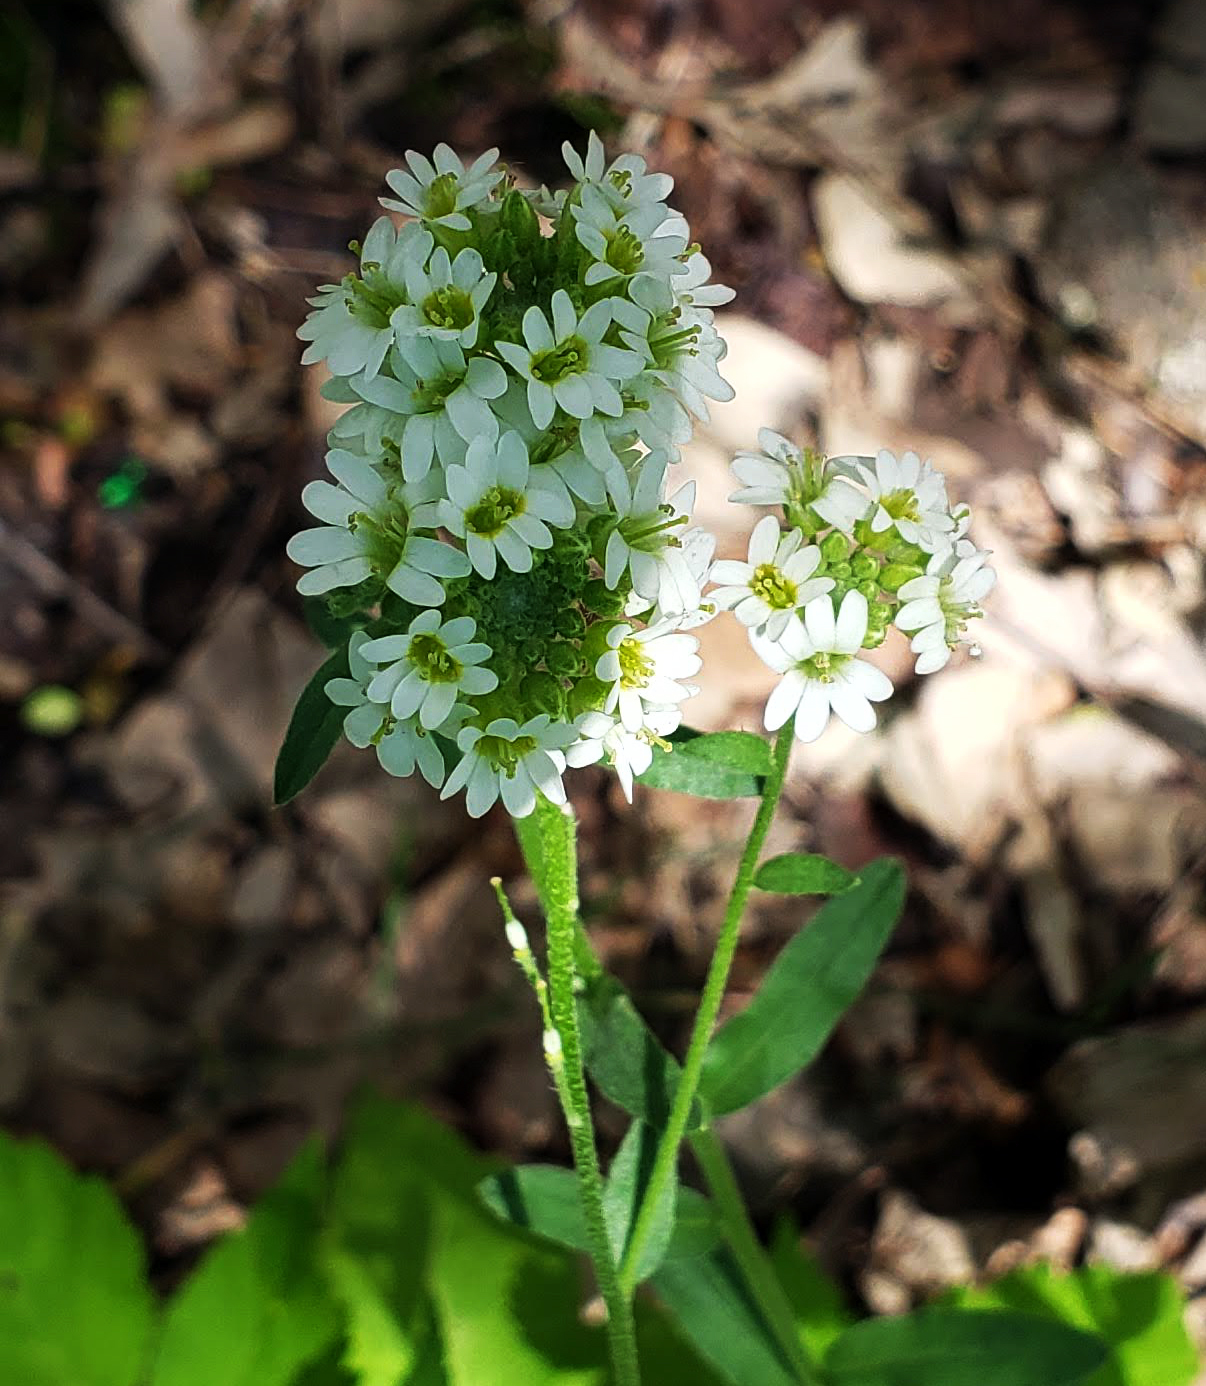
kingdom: Plantae
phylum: Tracheophyta
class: Magnoliopsida
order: Brassicales
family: Brassicaceae
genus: Berteroa
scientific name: Berteroa incana
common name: Hoary alison
